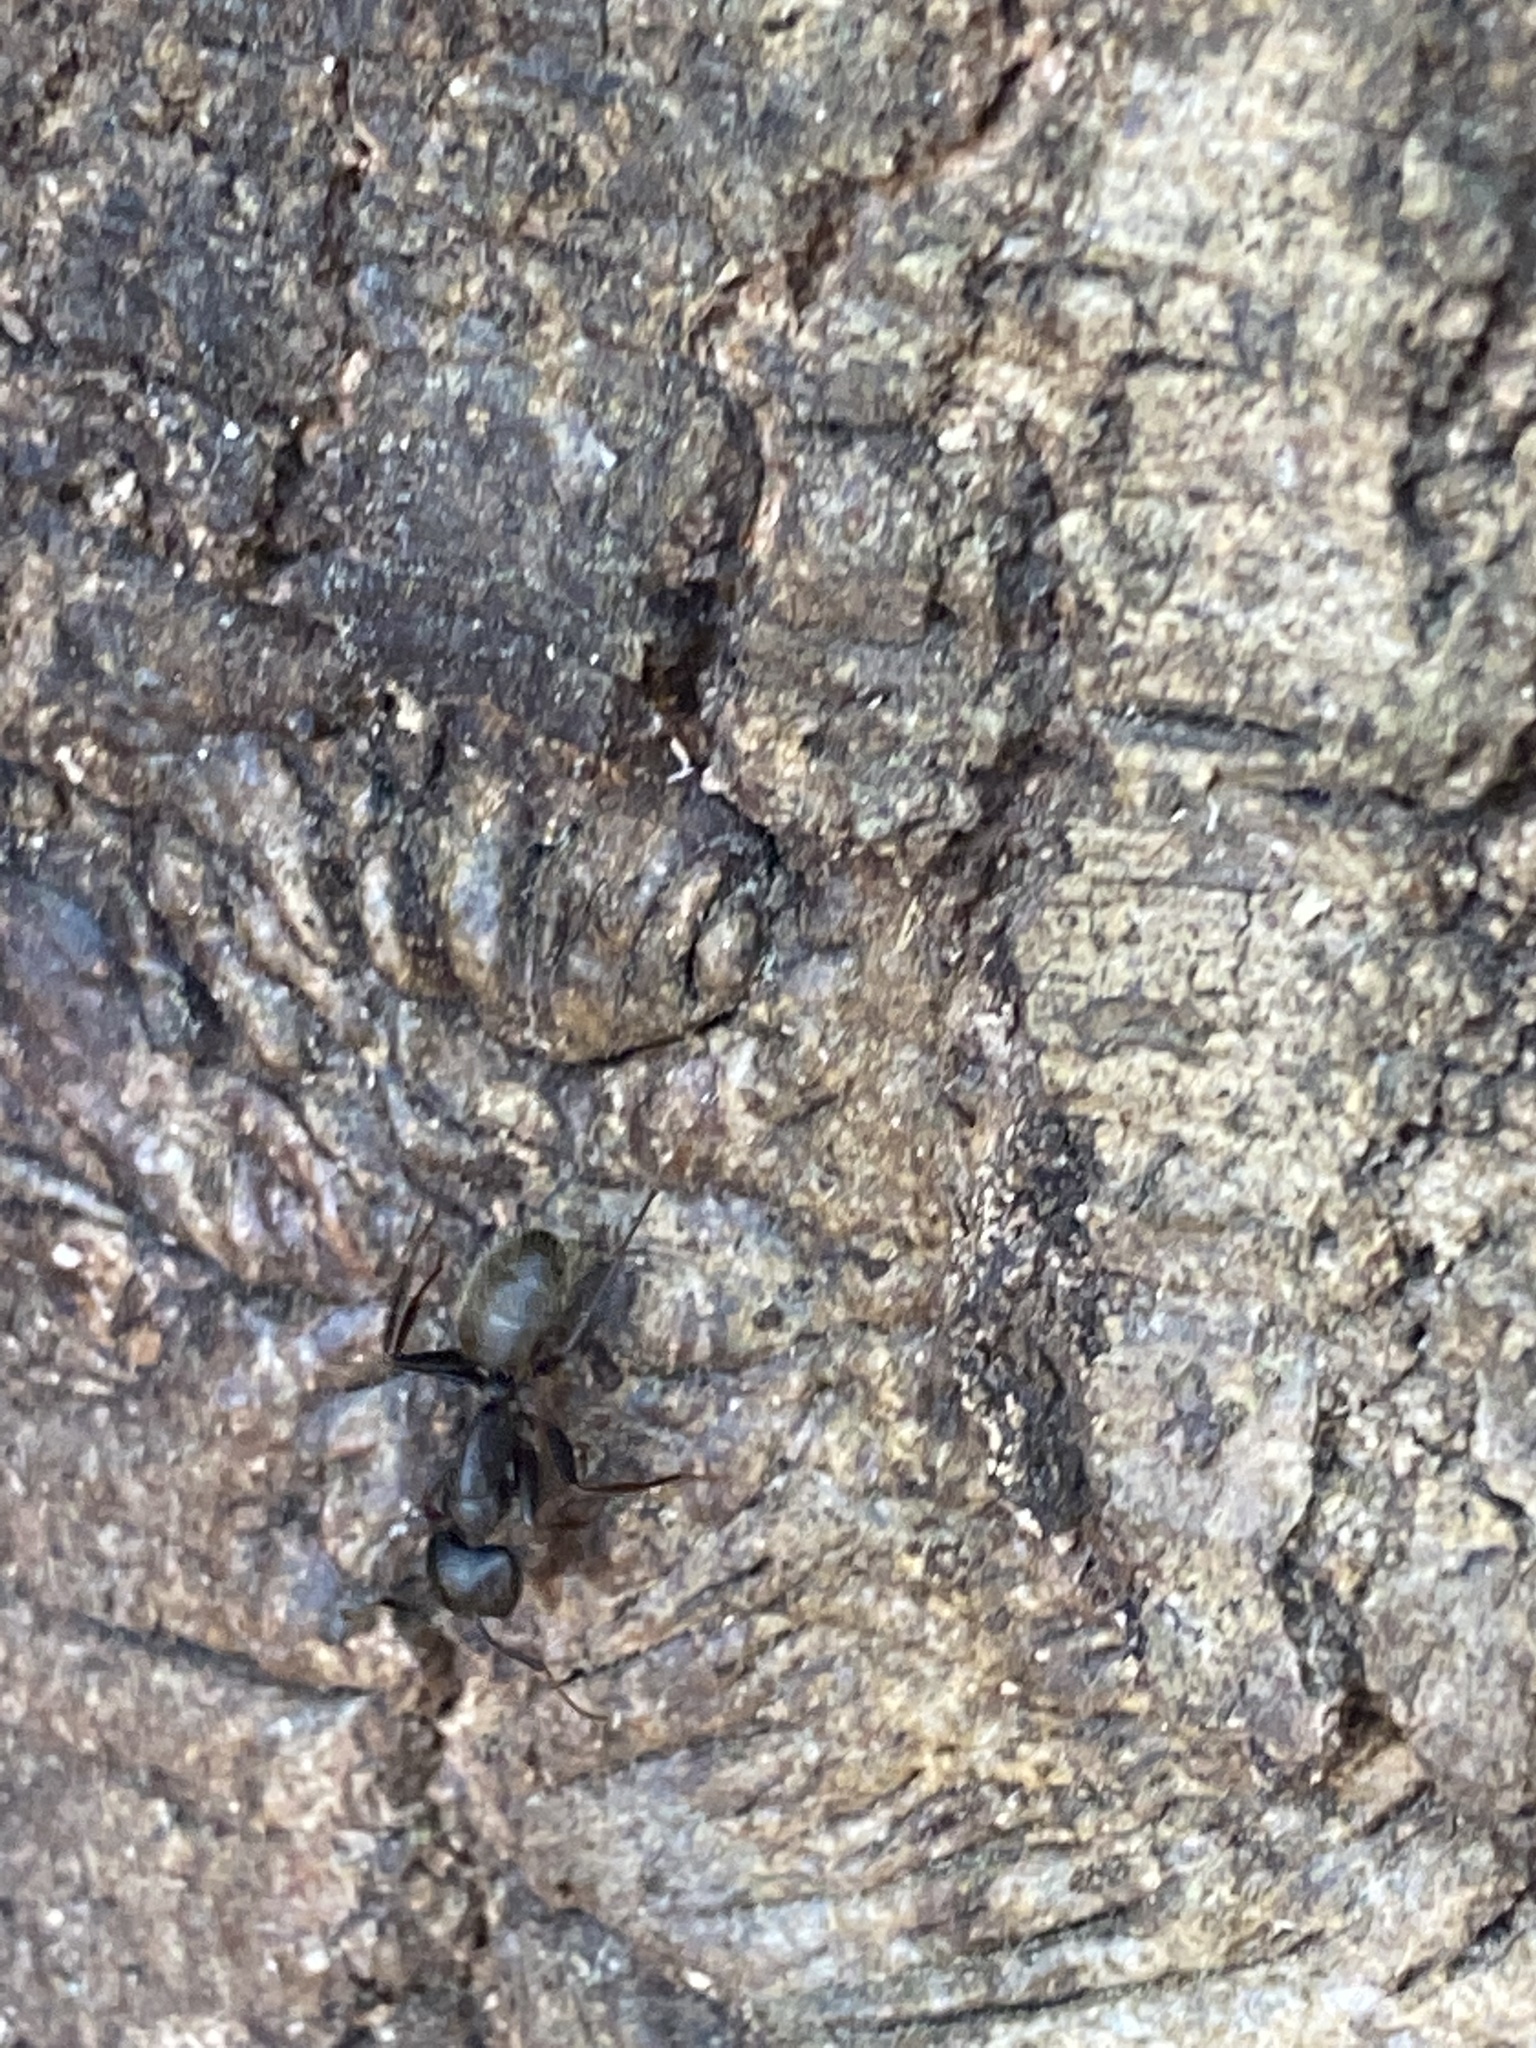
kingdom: Animalia
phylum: Arthropoda
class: Insecta
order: Hymenoptera
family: Formicidae
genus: Camponotus
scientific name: Camponotus pennsylvanicus
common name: Black carpenter ant
